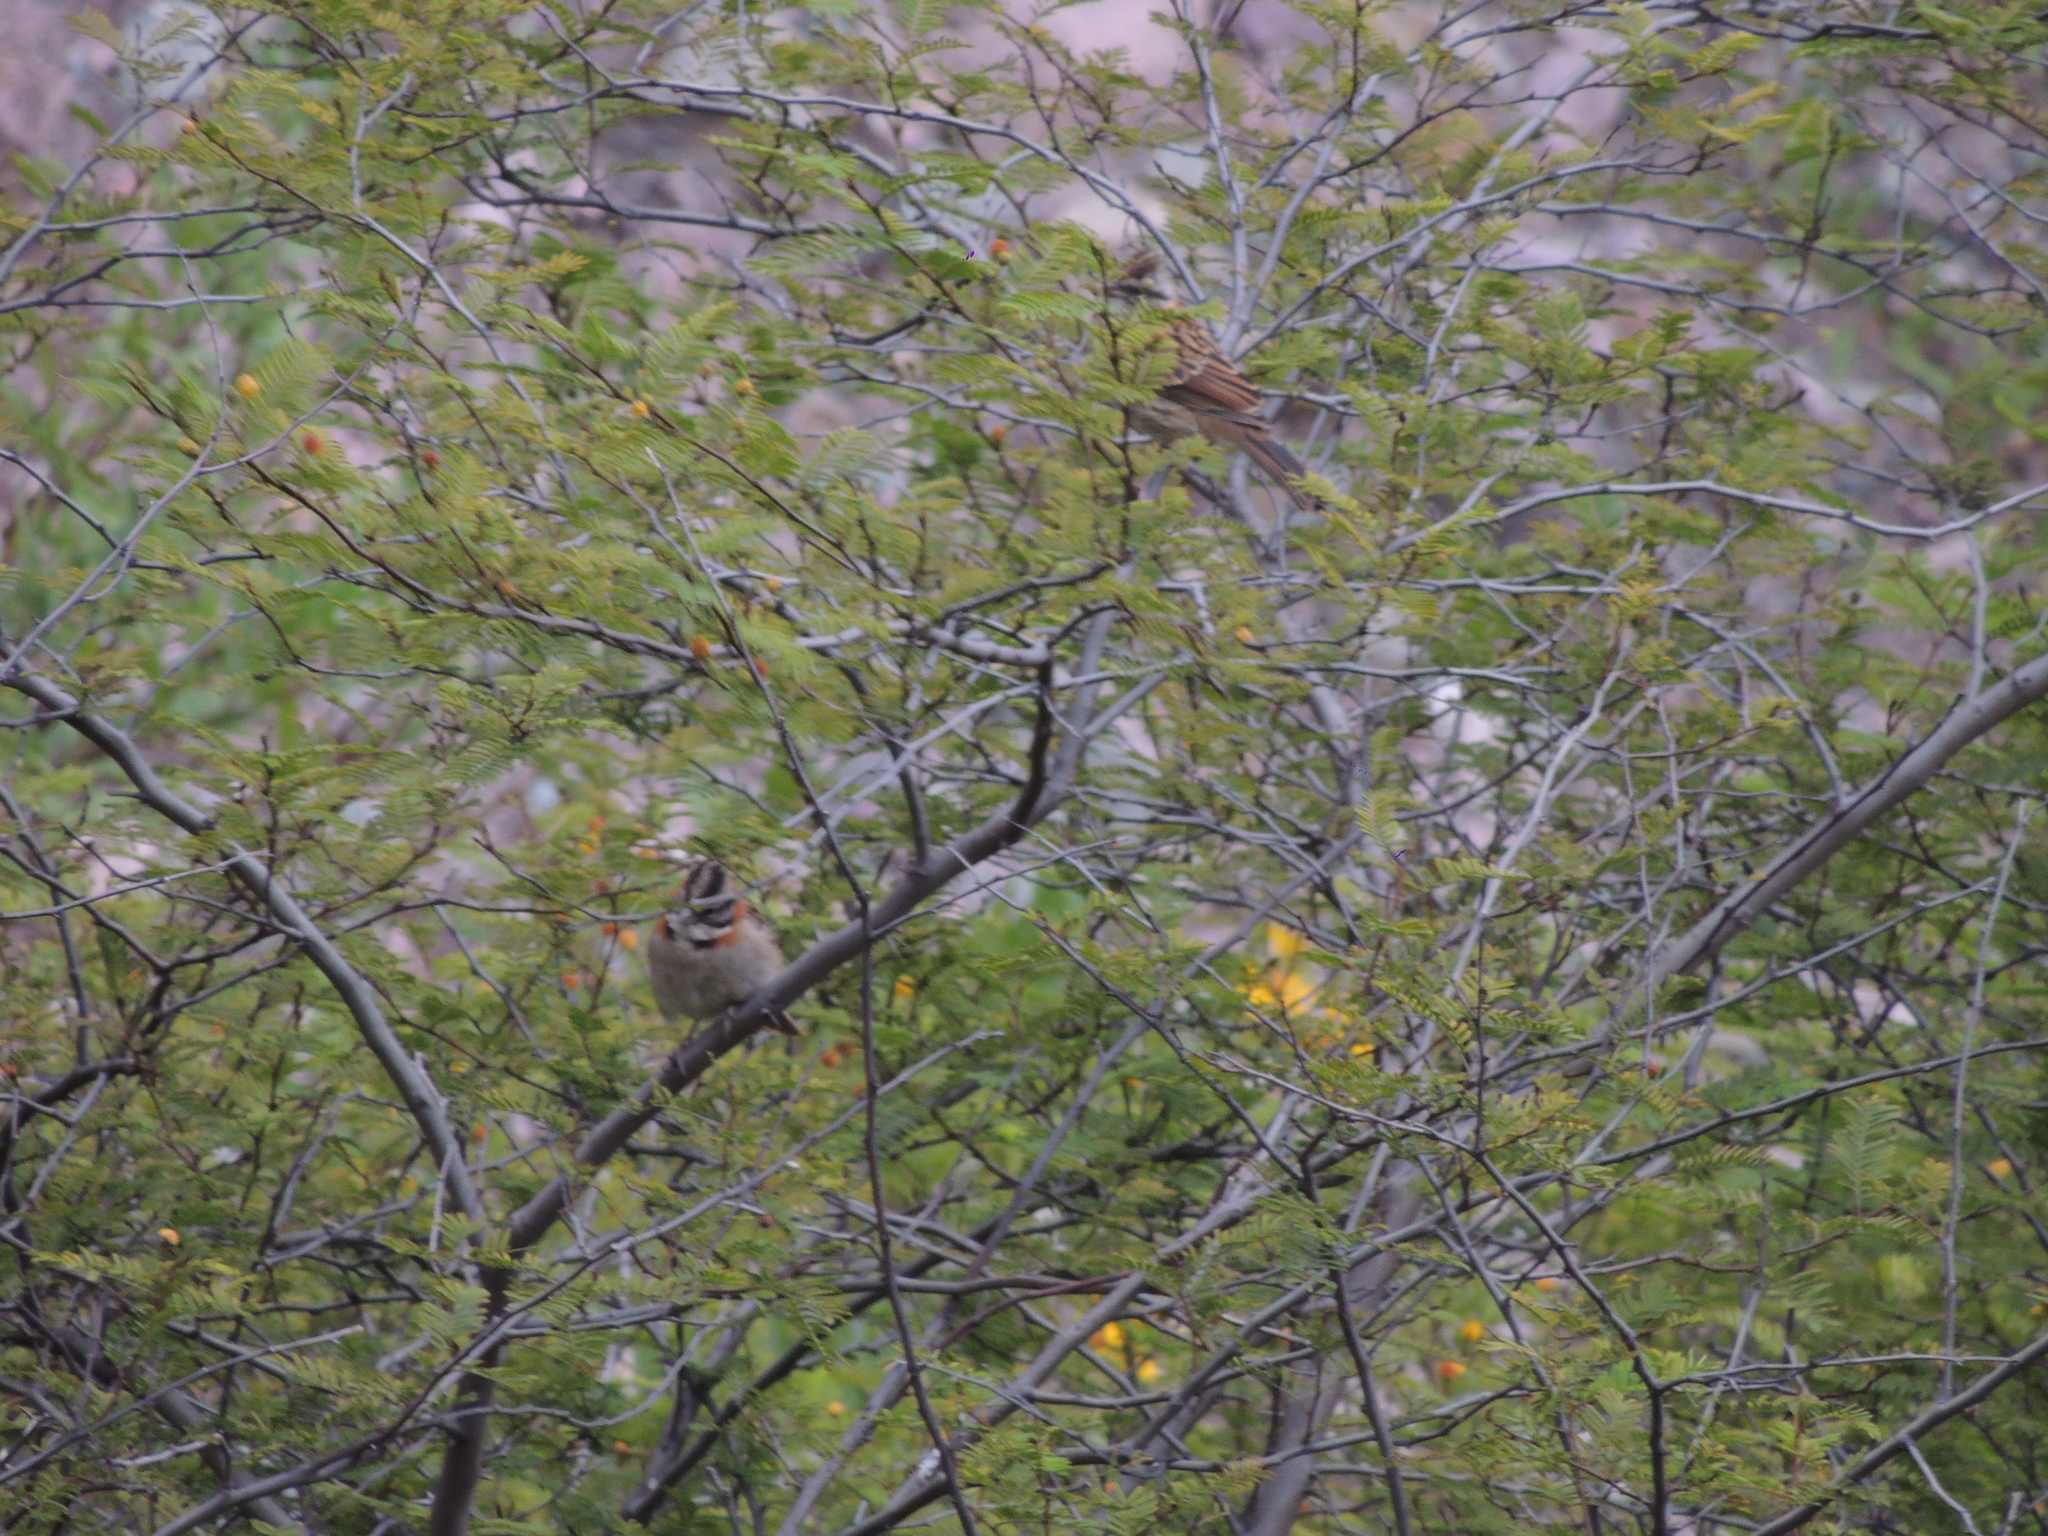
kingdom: Animalia
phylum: Chordata
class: Aves
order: Passeriformes
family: Passerellidae
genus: Zonotrichia
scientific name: Zonotrichia capensis
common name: Rufous-collared sparrow
